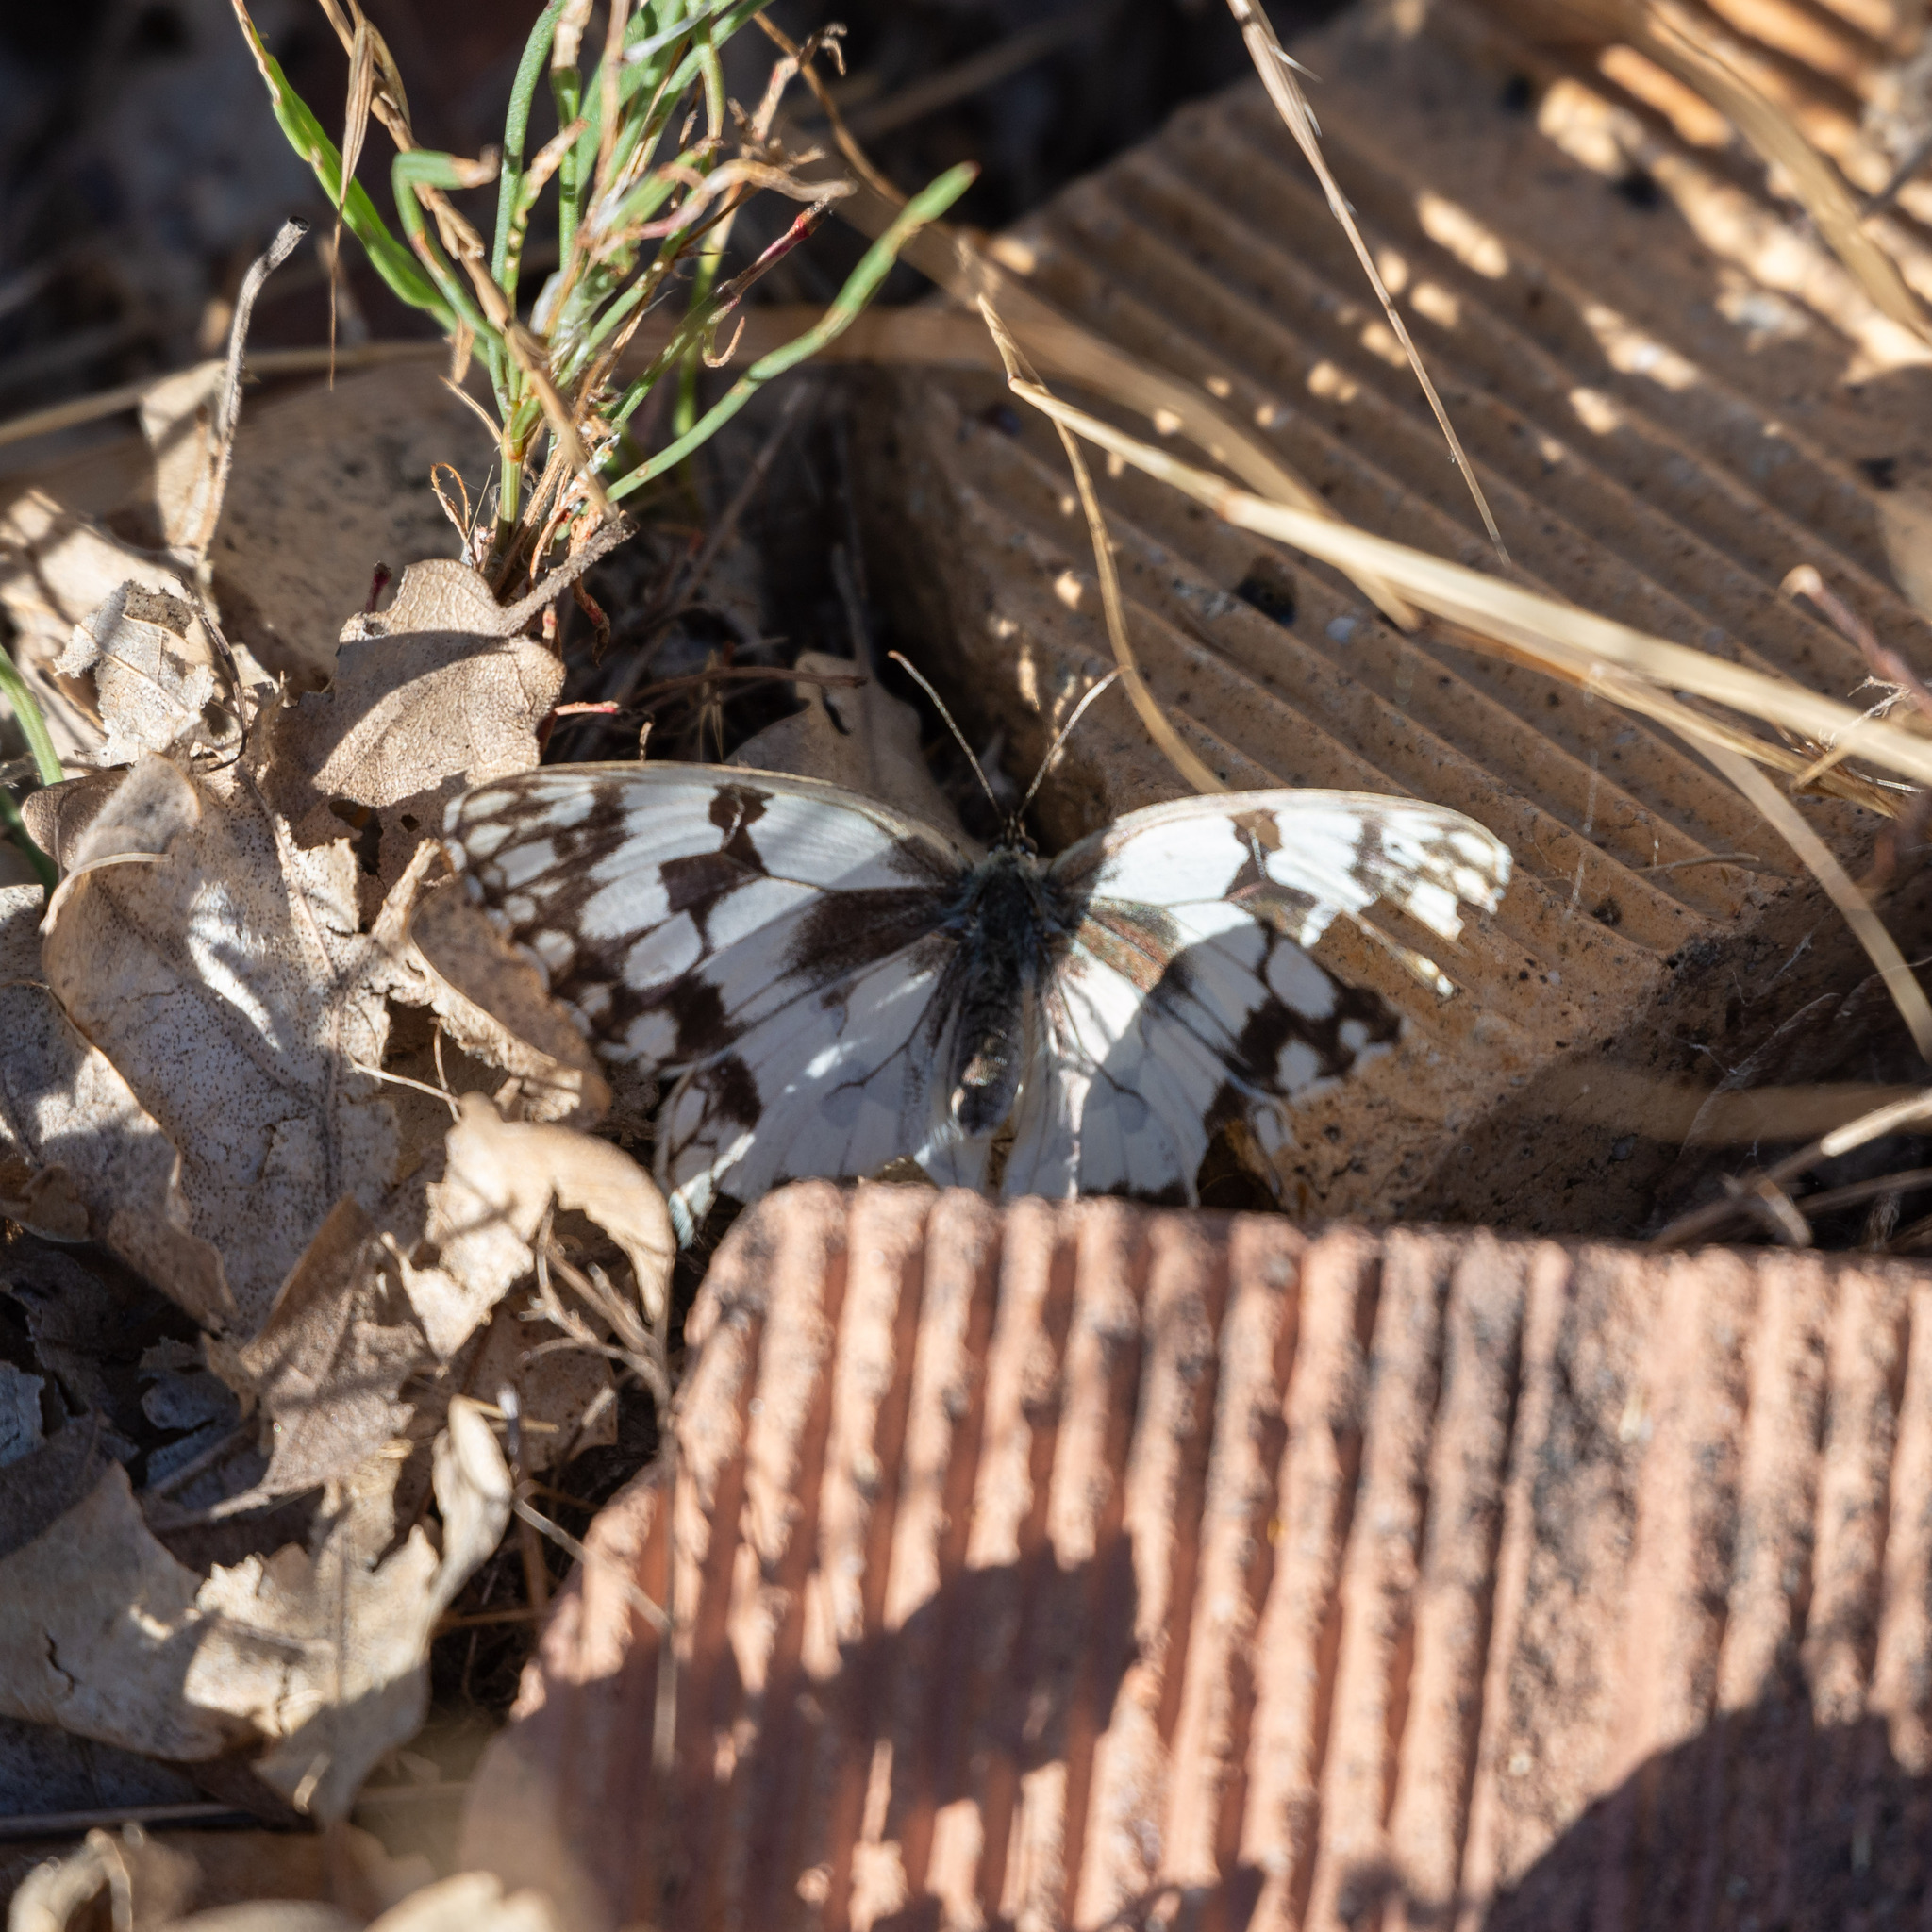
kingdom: Animalia
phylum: Arthropoda
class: Insecta
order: Lepidoptera
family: Nymphalidae
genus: Melanargia
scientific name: Melanargia lachesis
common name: Iberian marbled white
